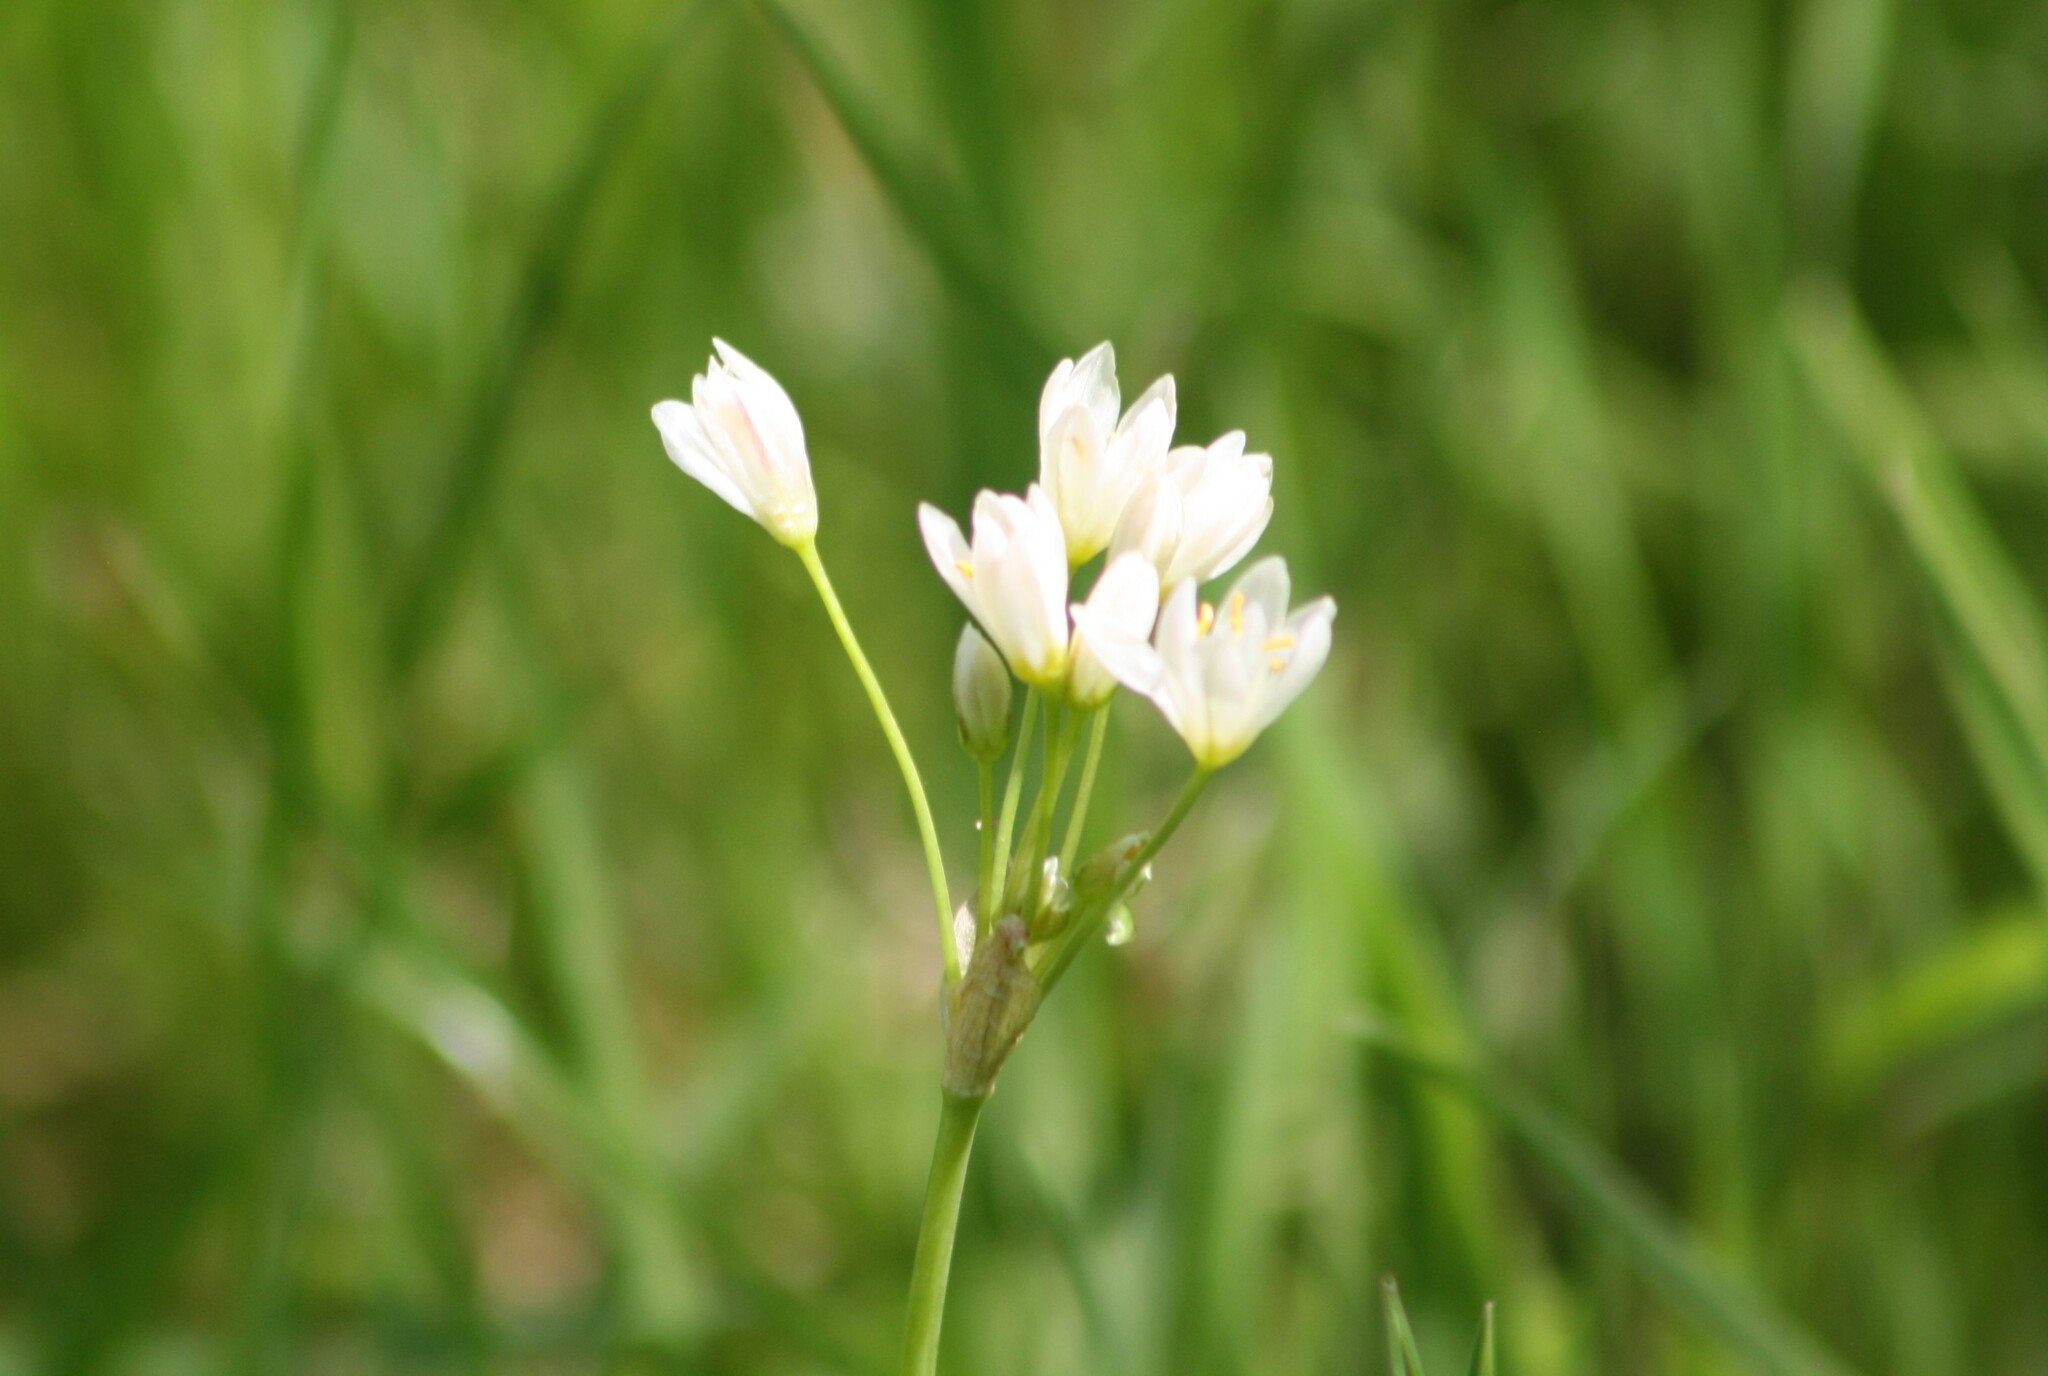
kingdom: Plantae
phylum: Tracheophyta
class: Liliopsida
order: Asparagales
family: Amaryllidaceae
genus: Nothoscordum
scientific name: Nothoscordum bivalve
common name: Crow-poison
